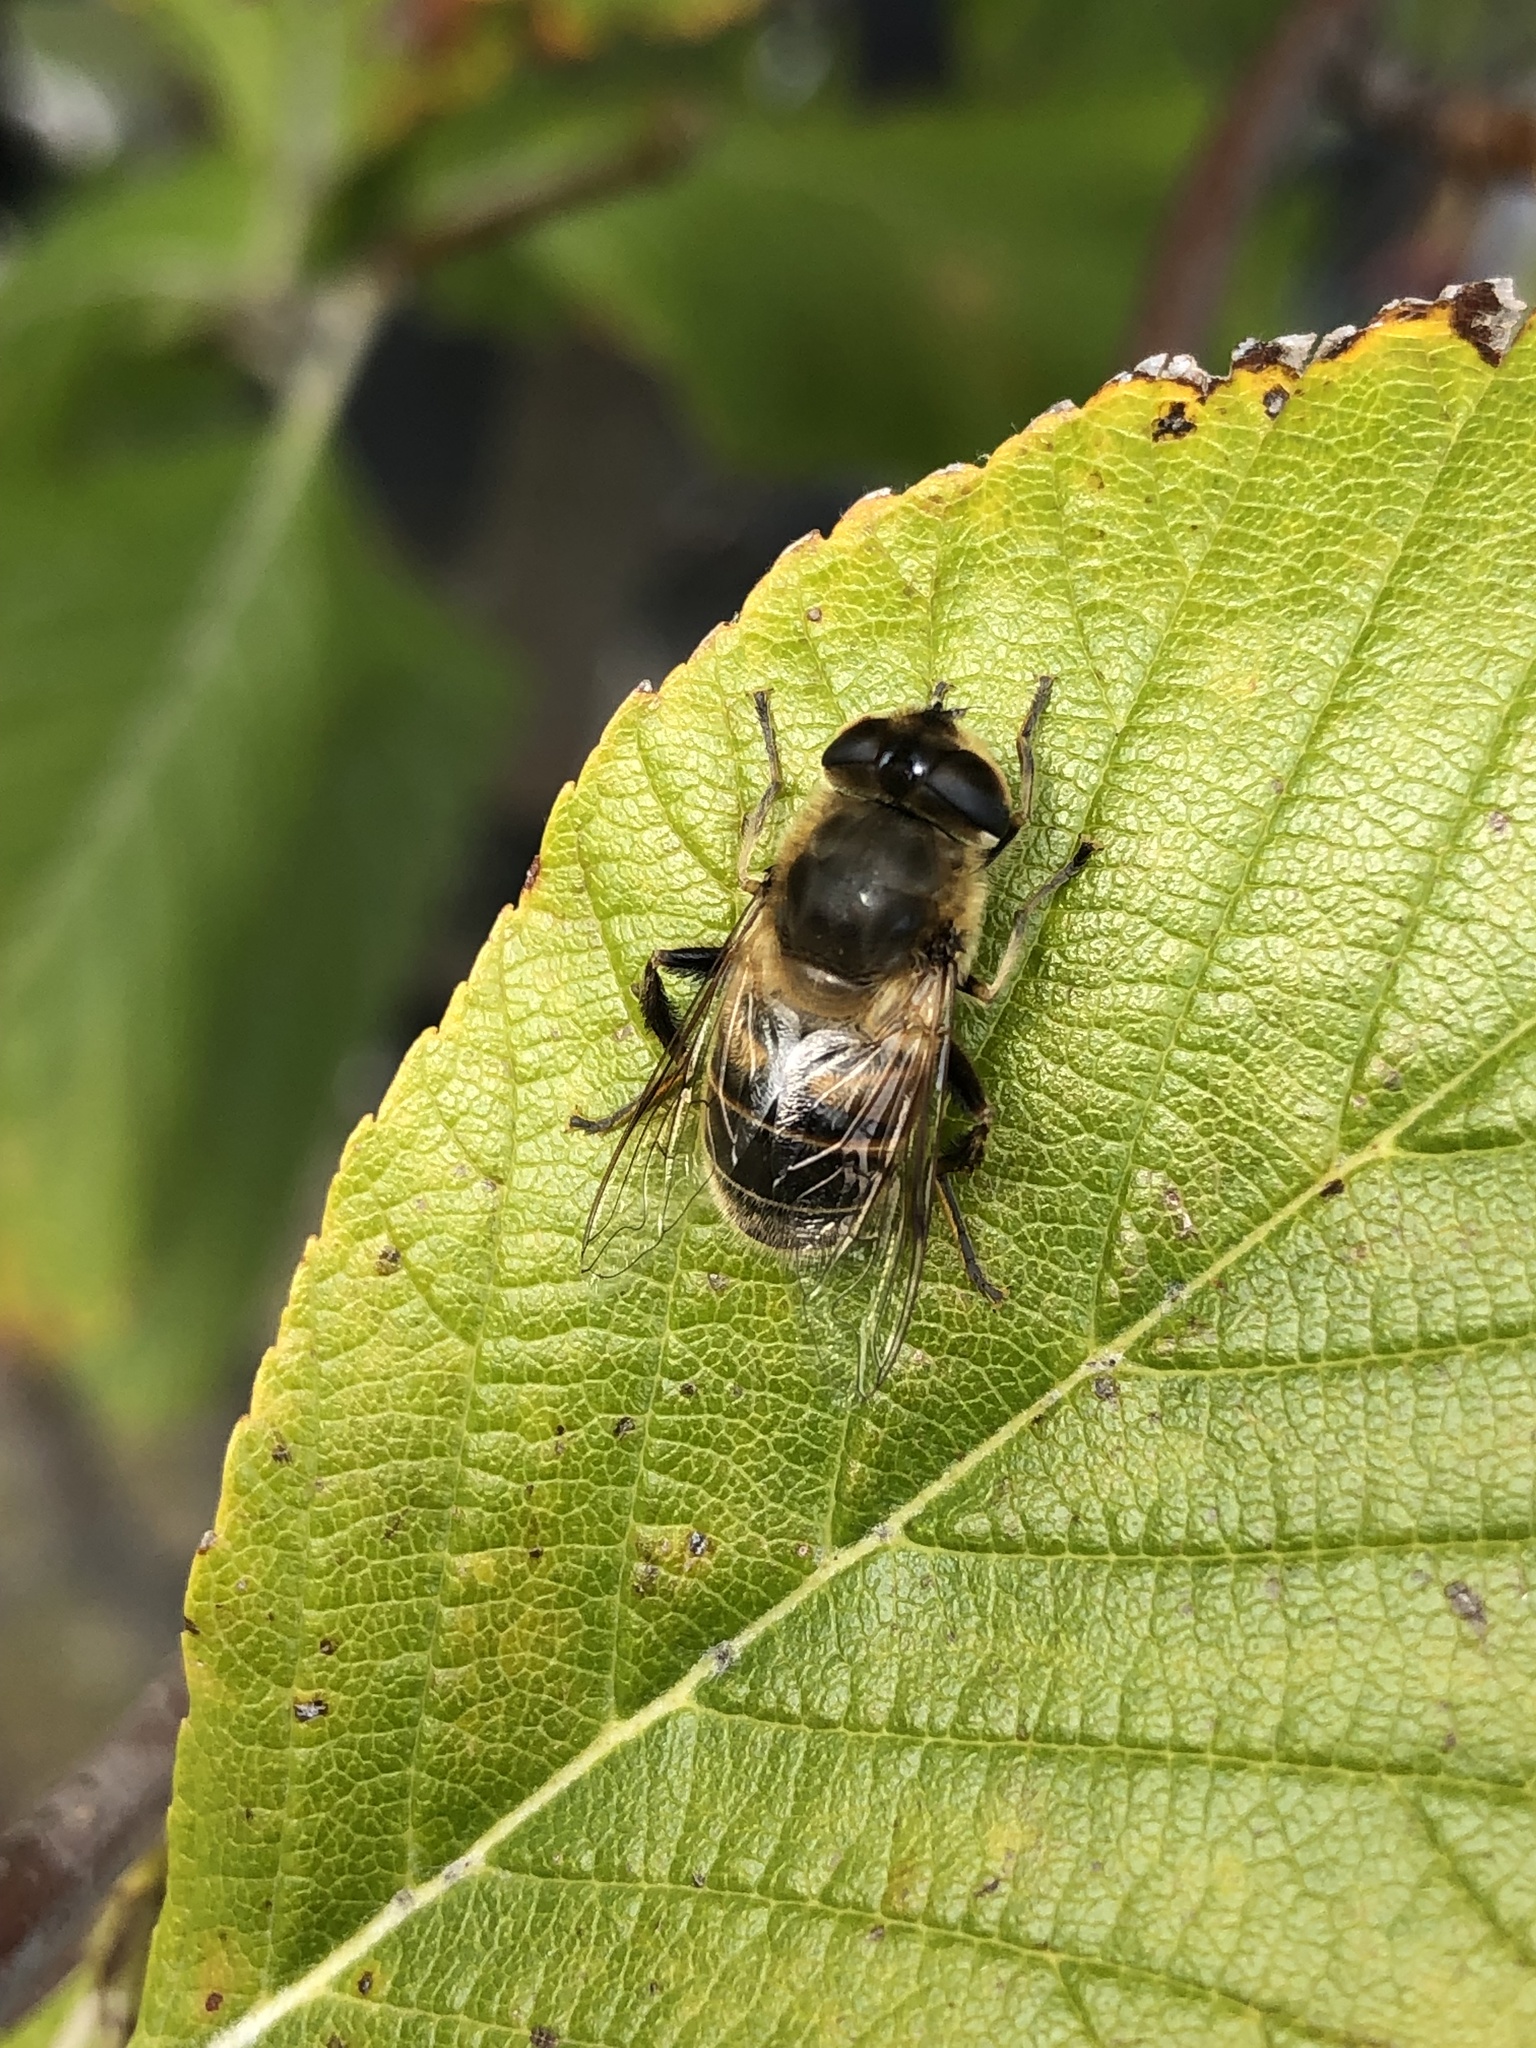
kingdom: Animalia
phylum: Arthropoda
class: Insecta
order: Diptera
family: Syrphidae
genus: Eristalis
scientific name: Eristalis tenax
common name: Drone fly
